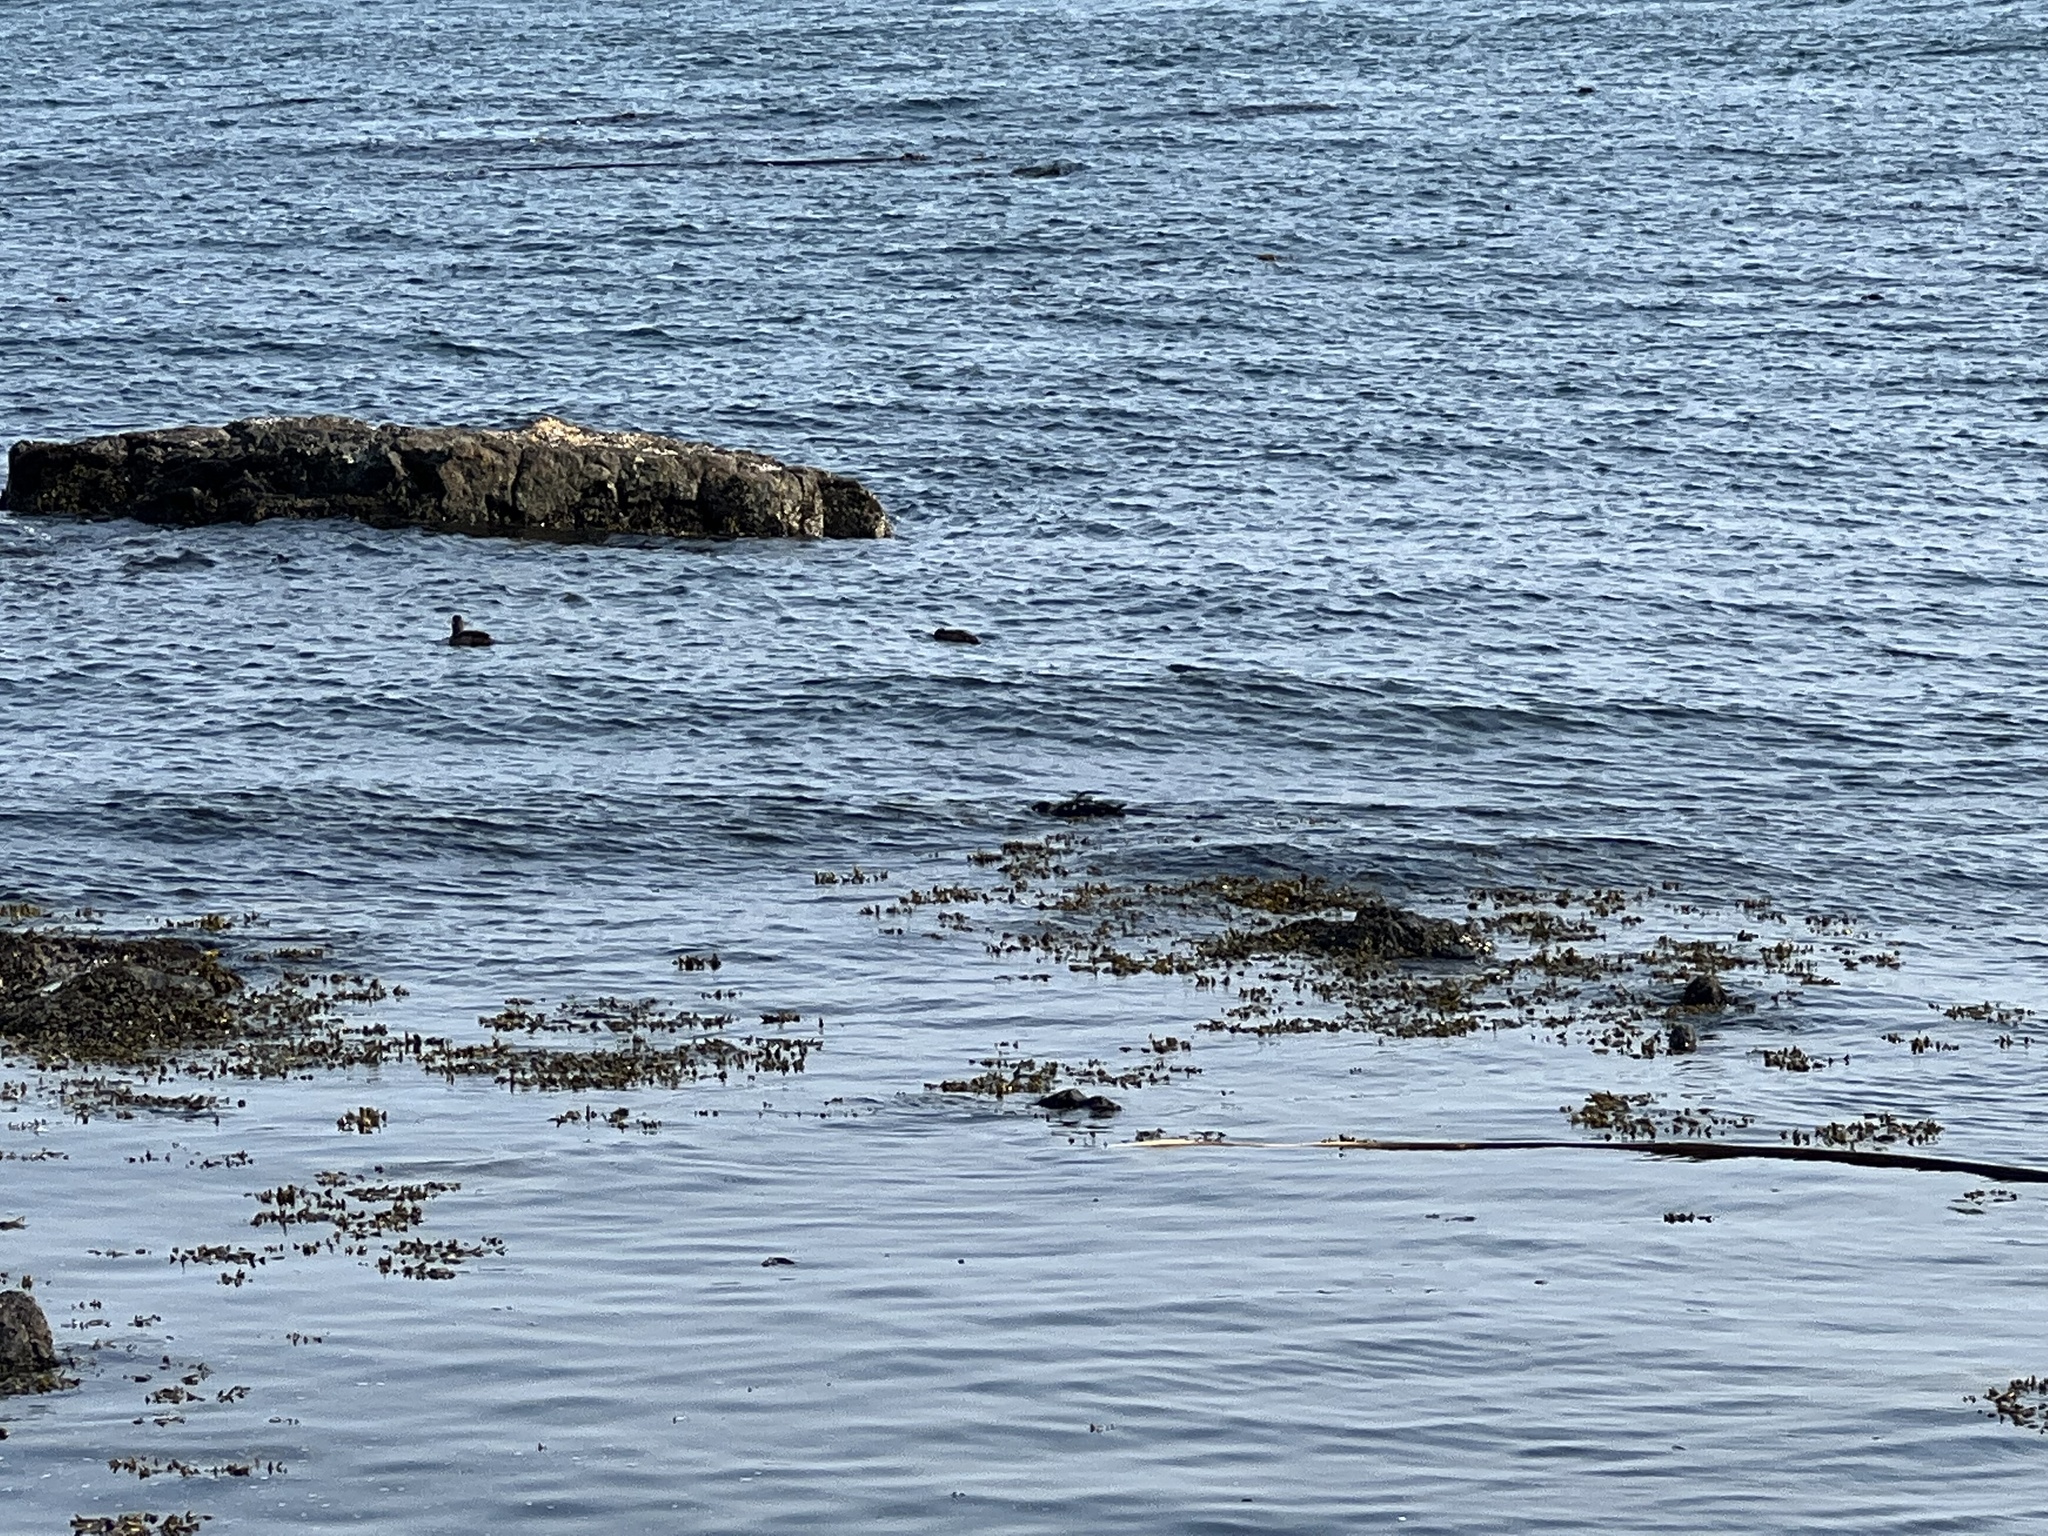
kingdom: Animalia
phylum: Chordata
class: Aves
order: Anseriformes
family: Anatidae
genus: Histrionicus
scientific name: Histrionicus histrionicus
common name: Harlequin duck
